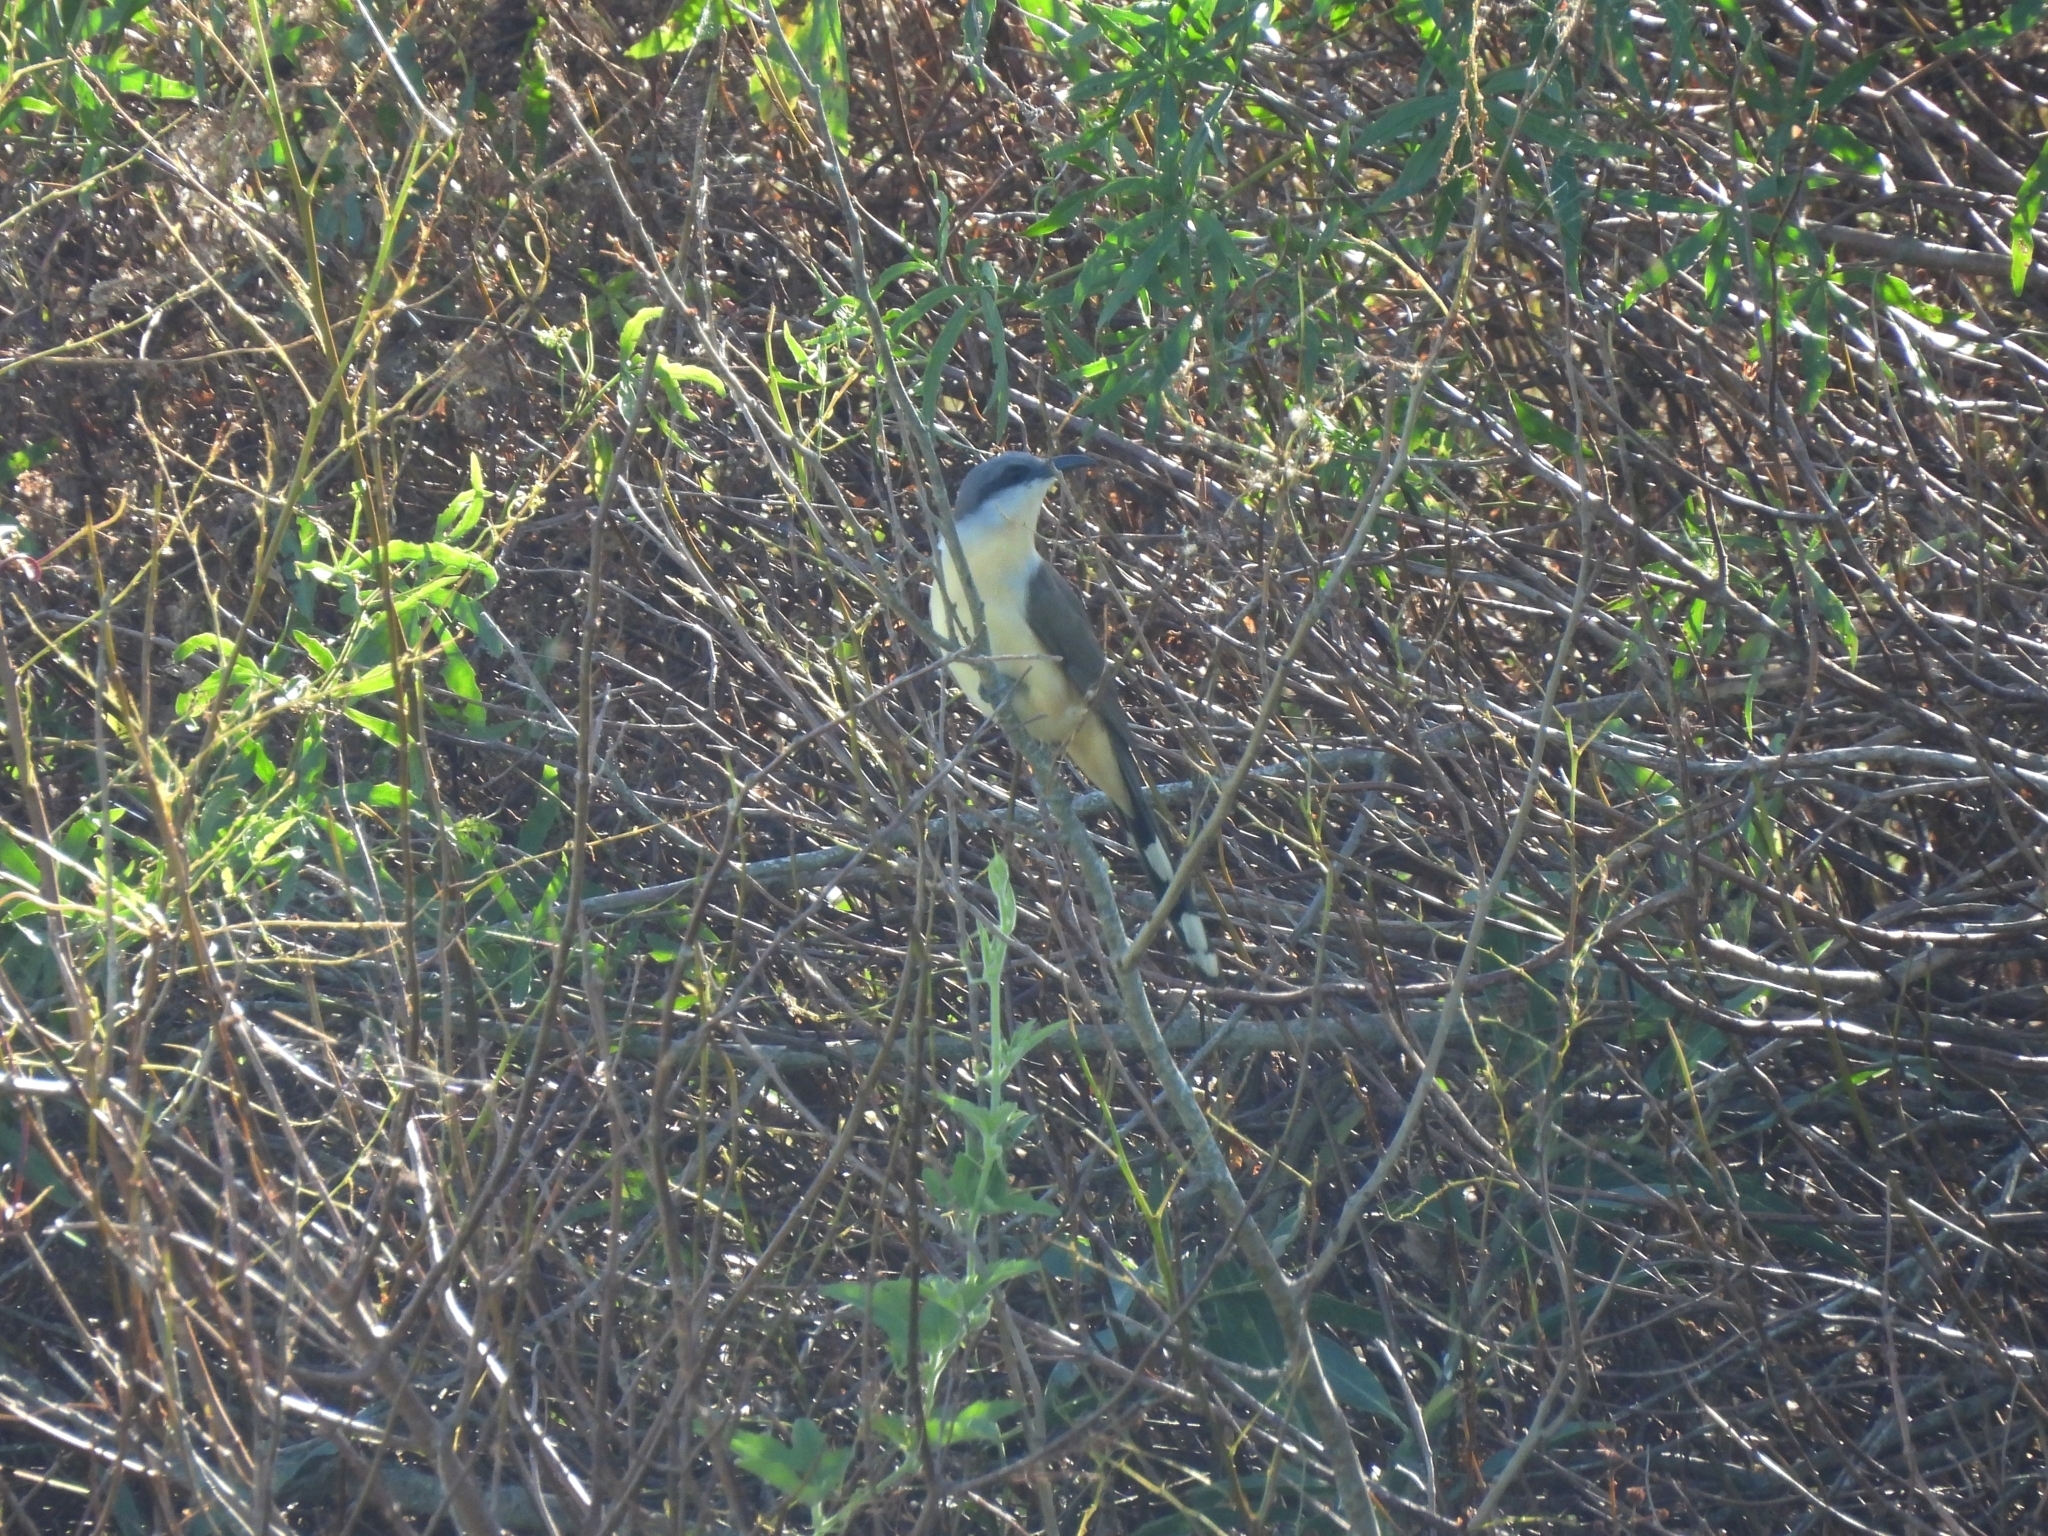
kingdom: Animalia
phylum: Chordata
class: Aves
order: Cuculiformes
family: Cuculidae
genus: Coccyzus
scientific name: Coccyzus melacoryphus
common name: Dark-billed cuckoo
